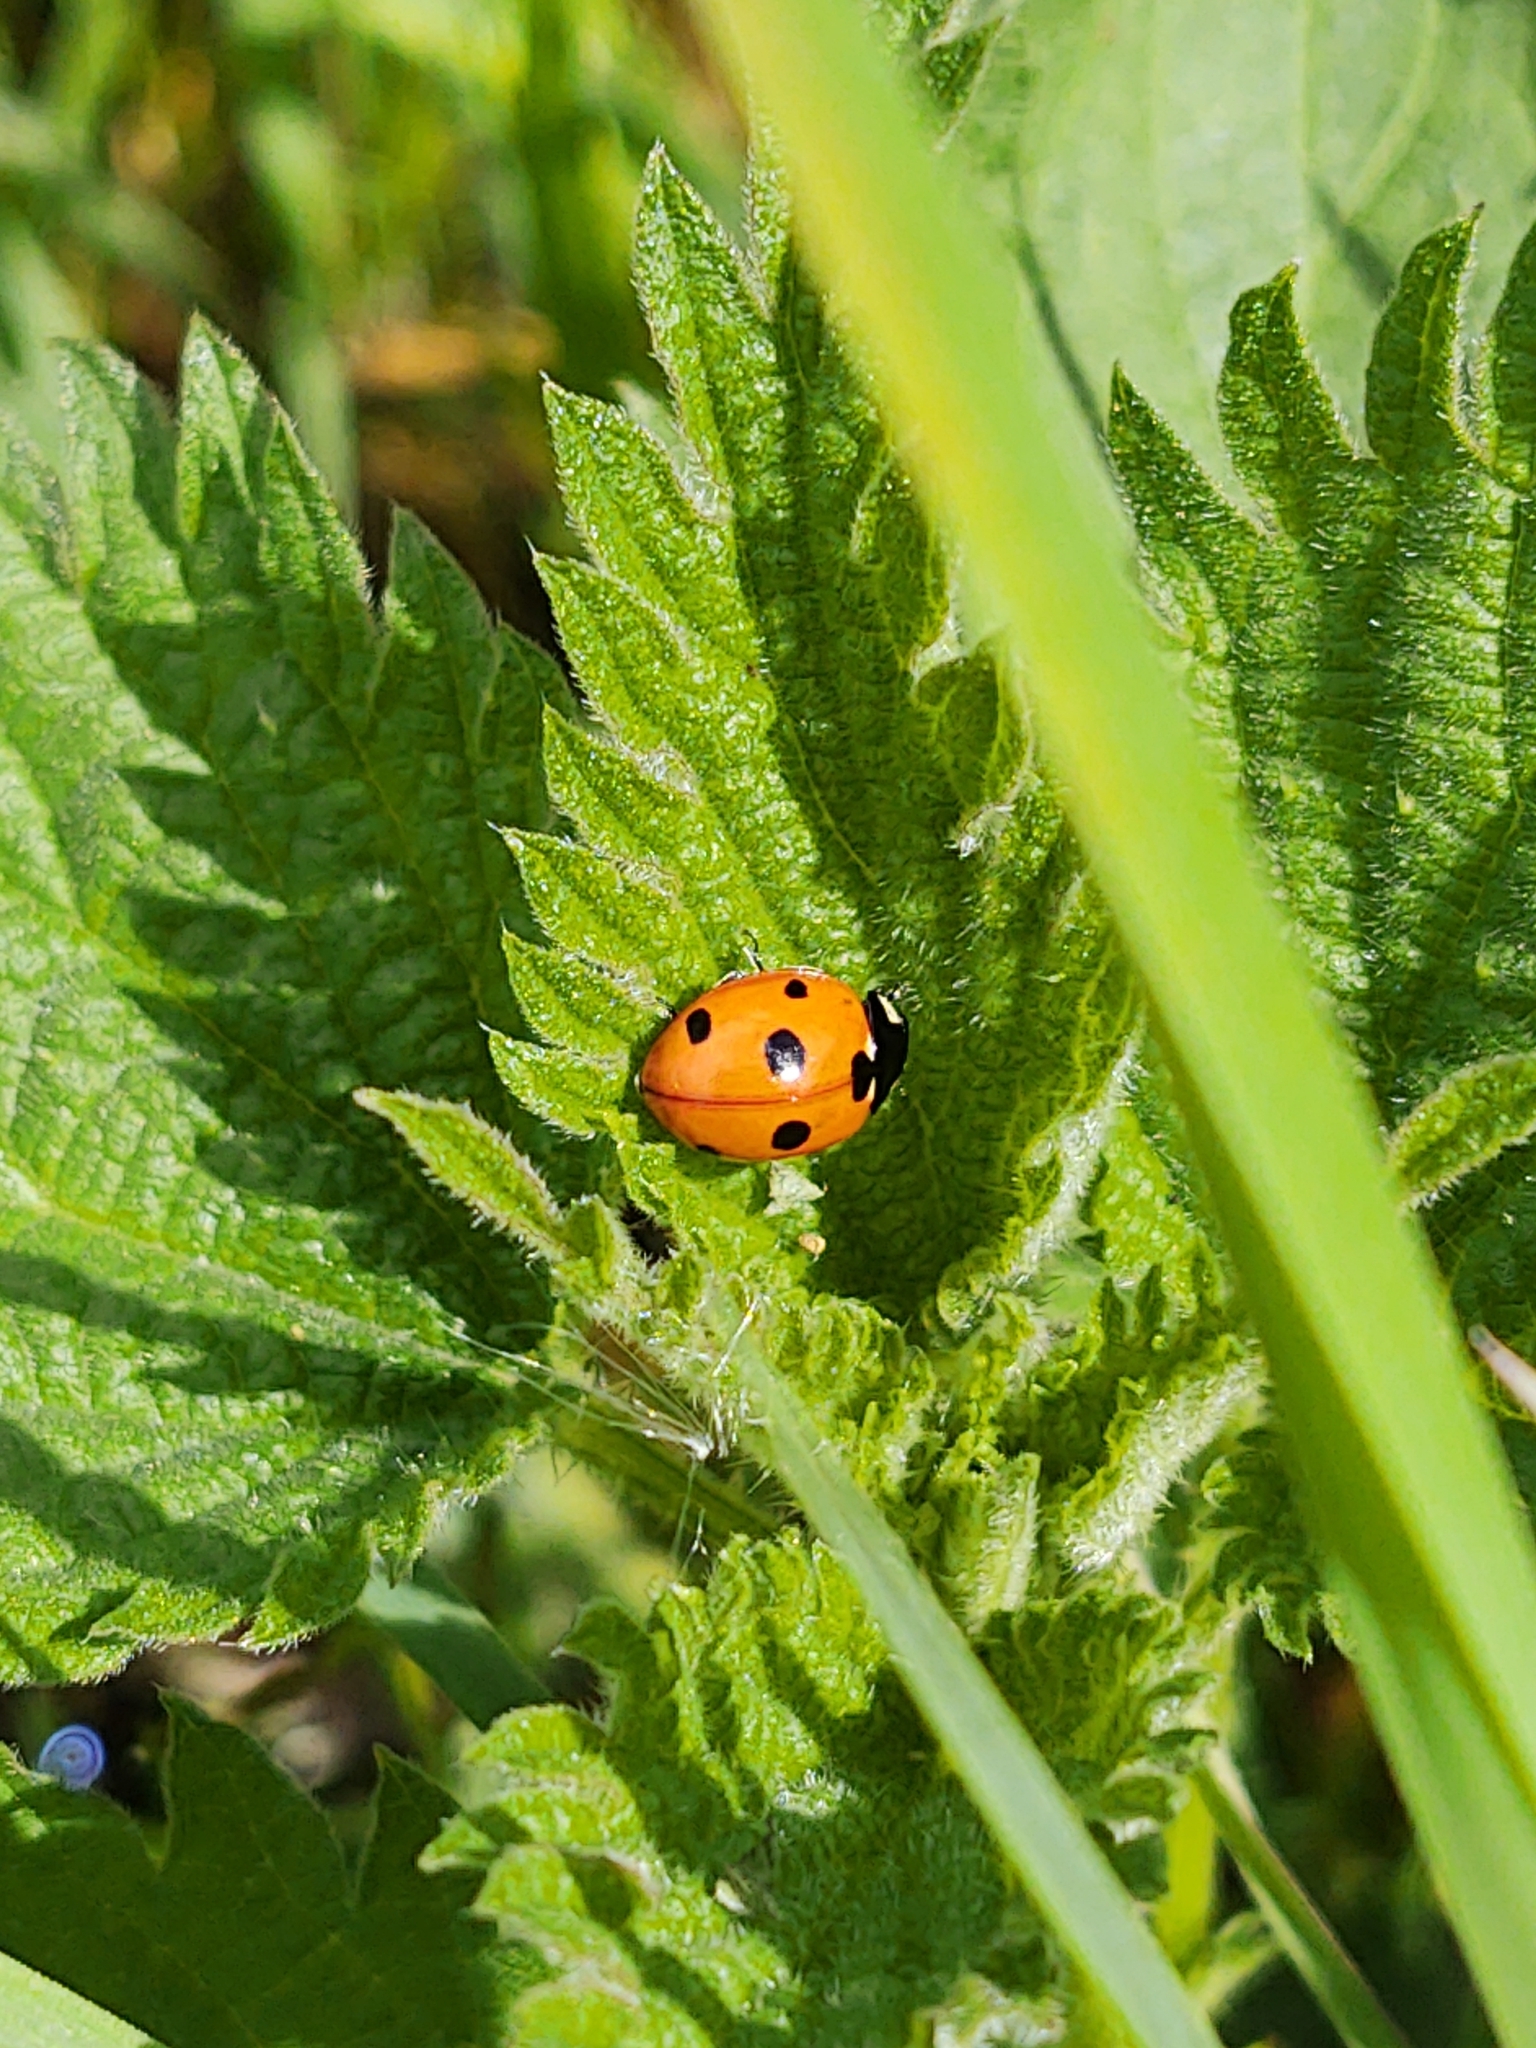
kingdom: Animalia
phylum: Arthropoda
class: Insecta
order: Coleoptera
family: Coccinellidae
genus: Coccinella
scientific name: Coccinella septempunctata
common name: Sevenspotted lady beetle
